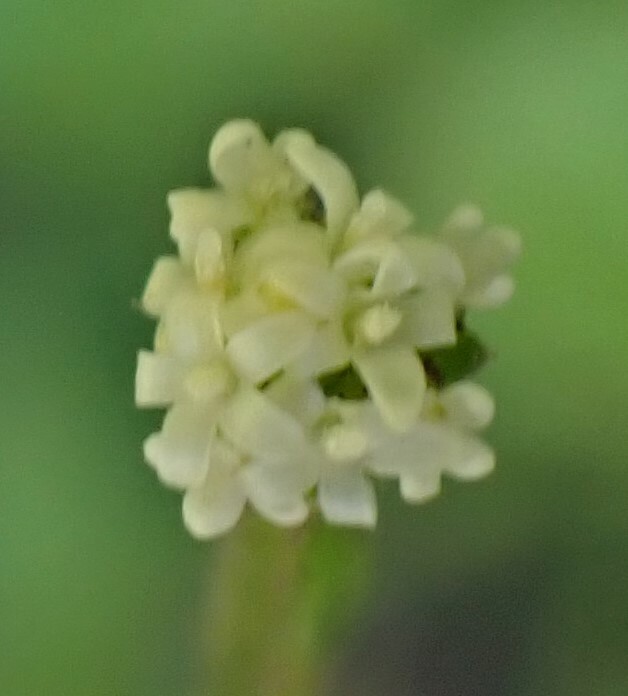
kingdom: Plantae
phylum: Tracheophyta
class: Magnoliopsida
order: Asterales
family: Asteraceae
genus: Adenocaulon
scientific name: Adenocaulon bicolor
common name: Trailplant
